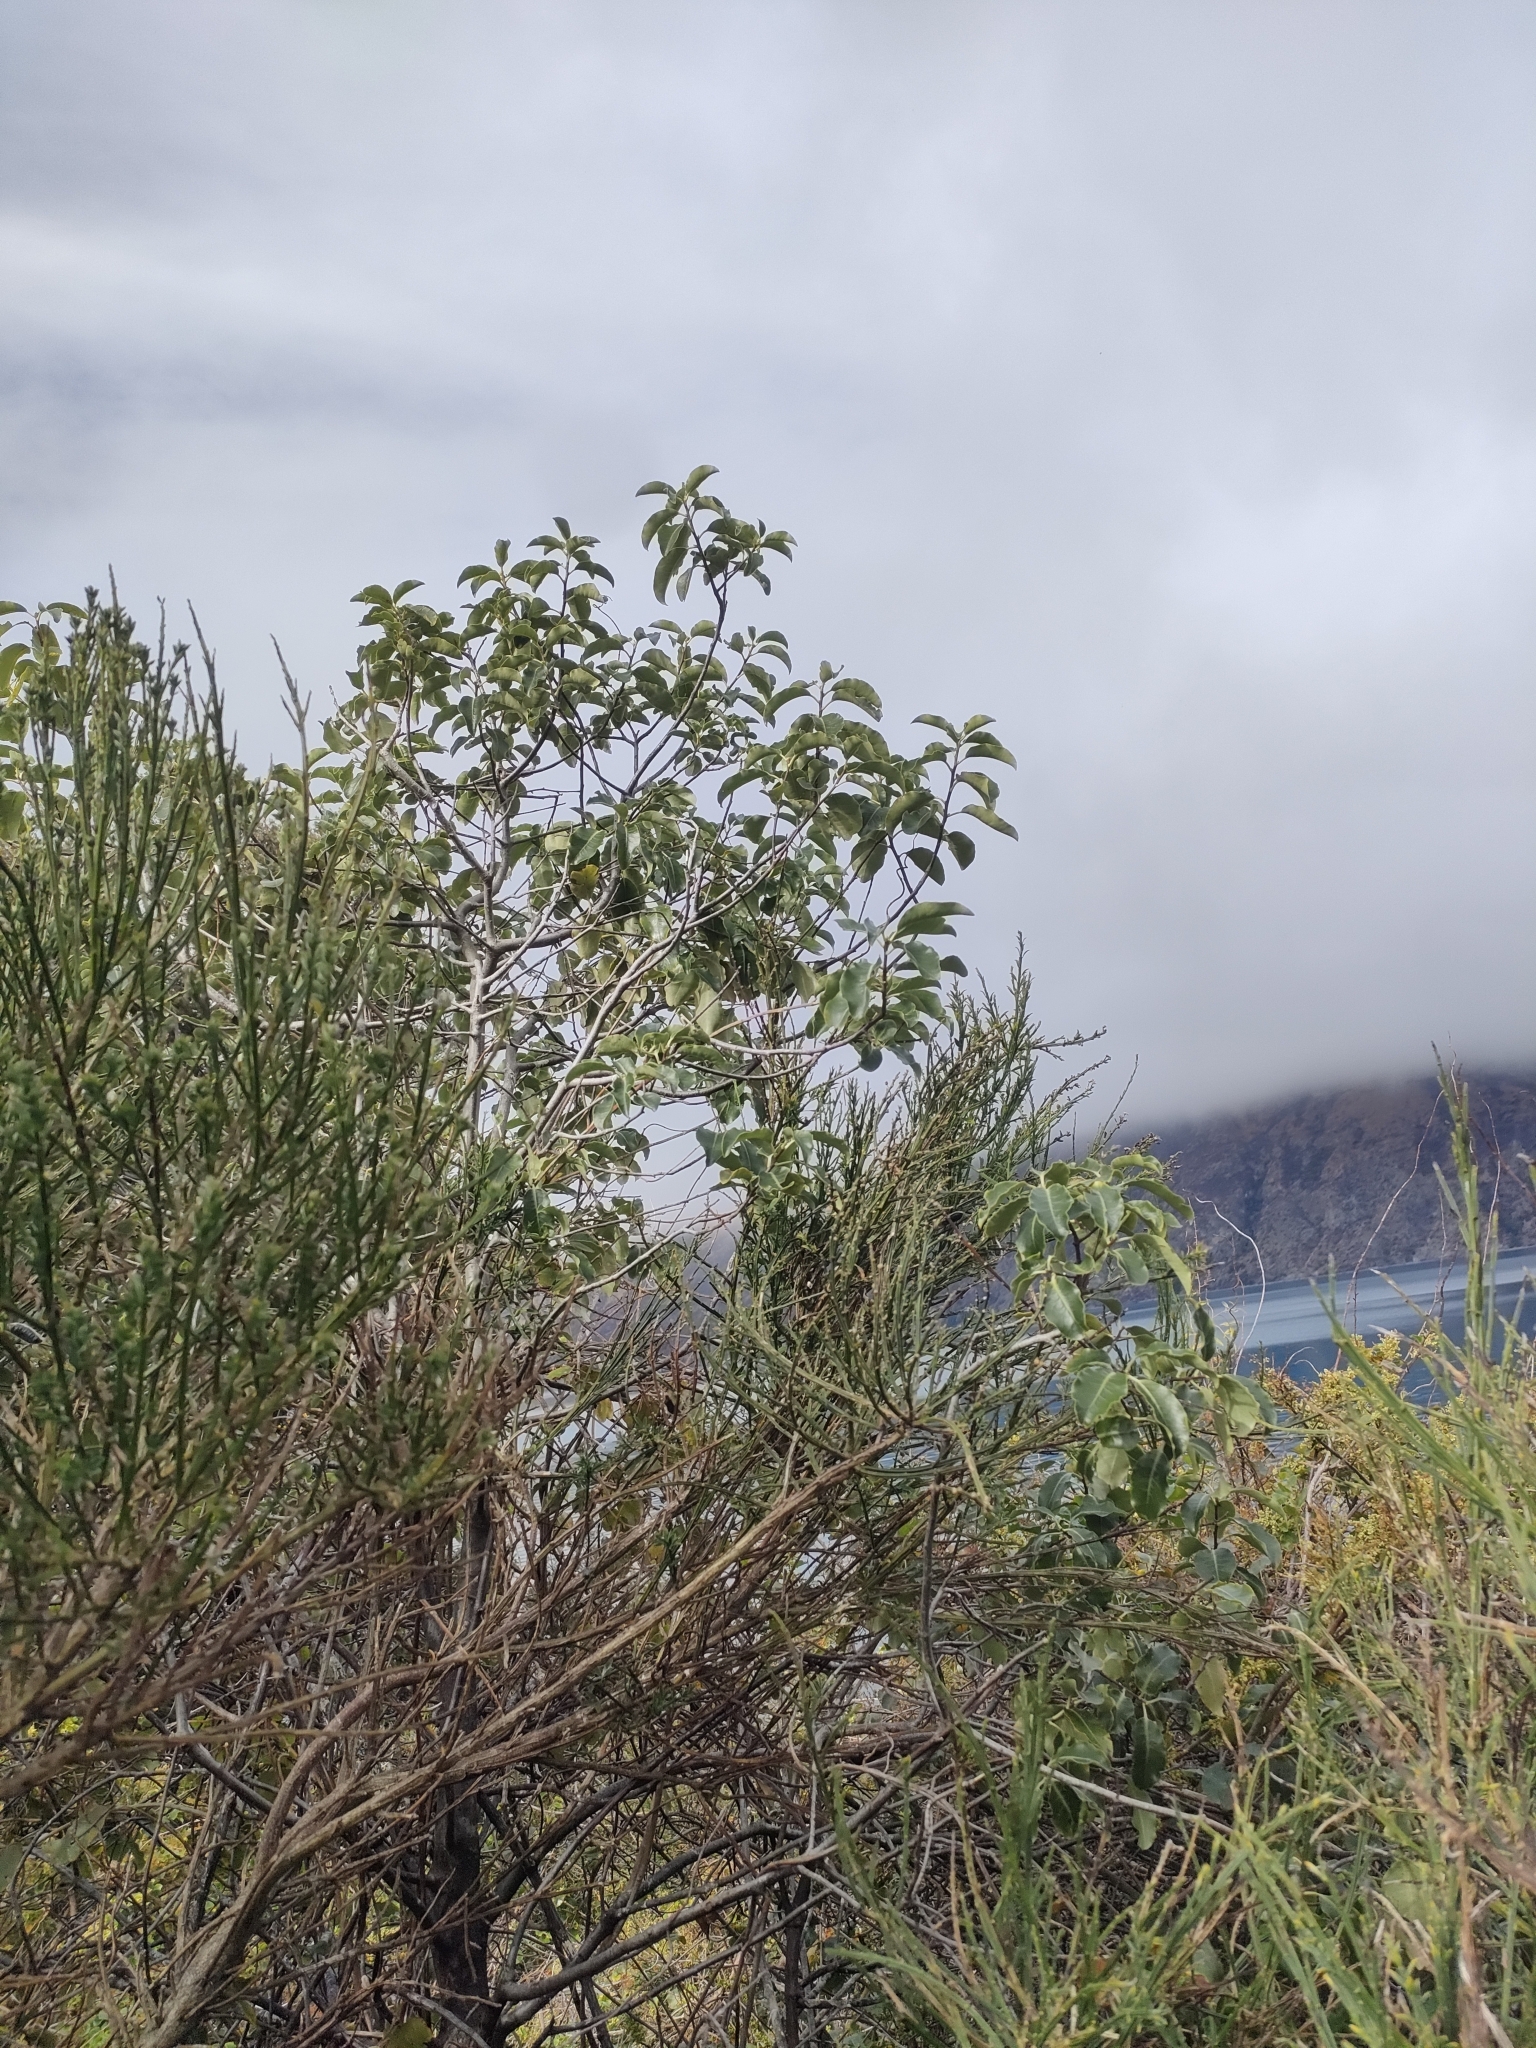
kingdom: Plantae
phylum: Tracheophyta
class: Magnoliopsida
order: Apiales
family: Pittosporaceae
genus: Pittosporum
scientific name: Pittosporum tenuifolium
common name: Kohuhu
